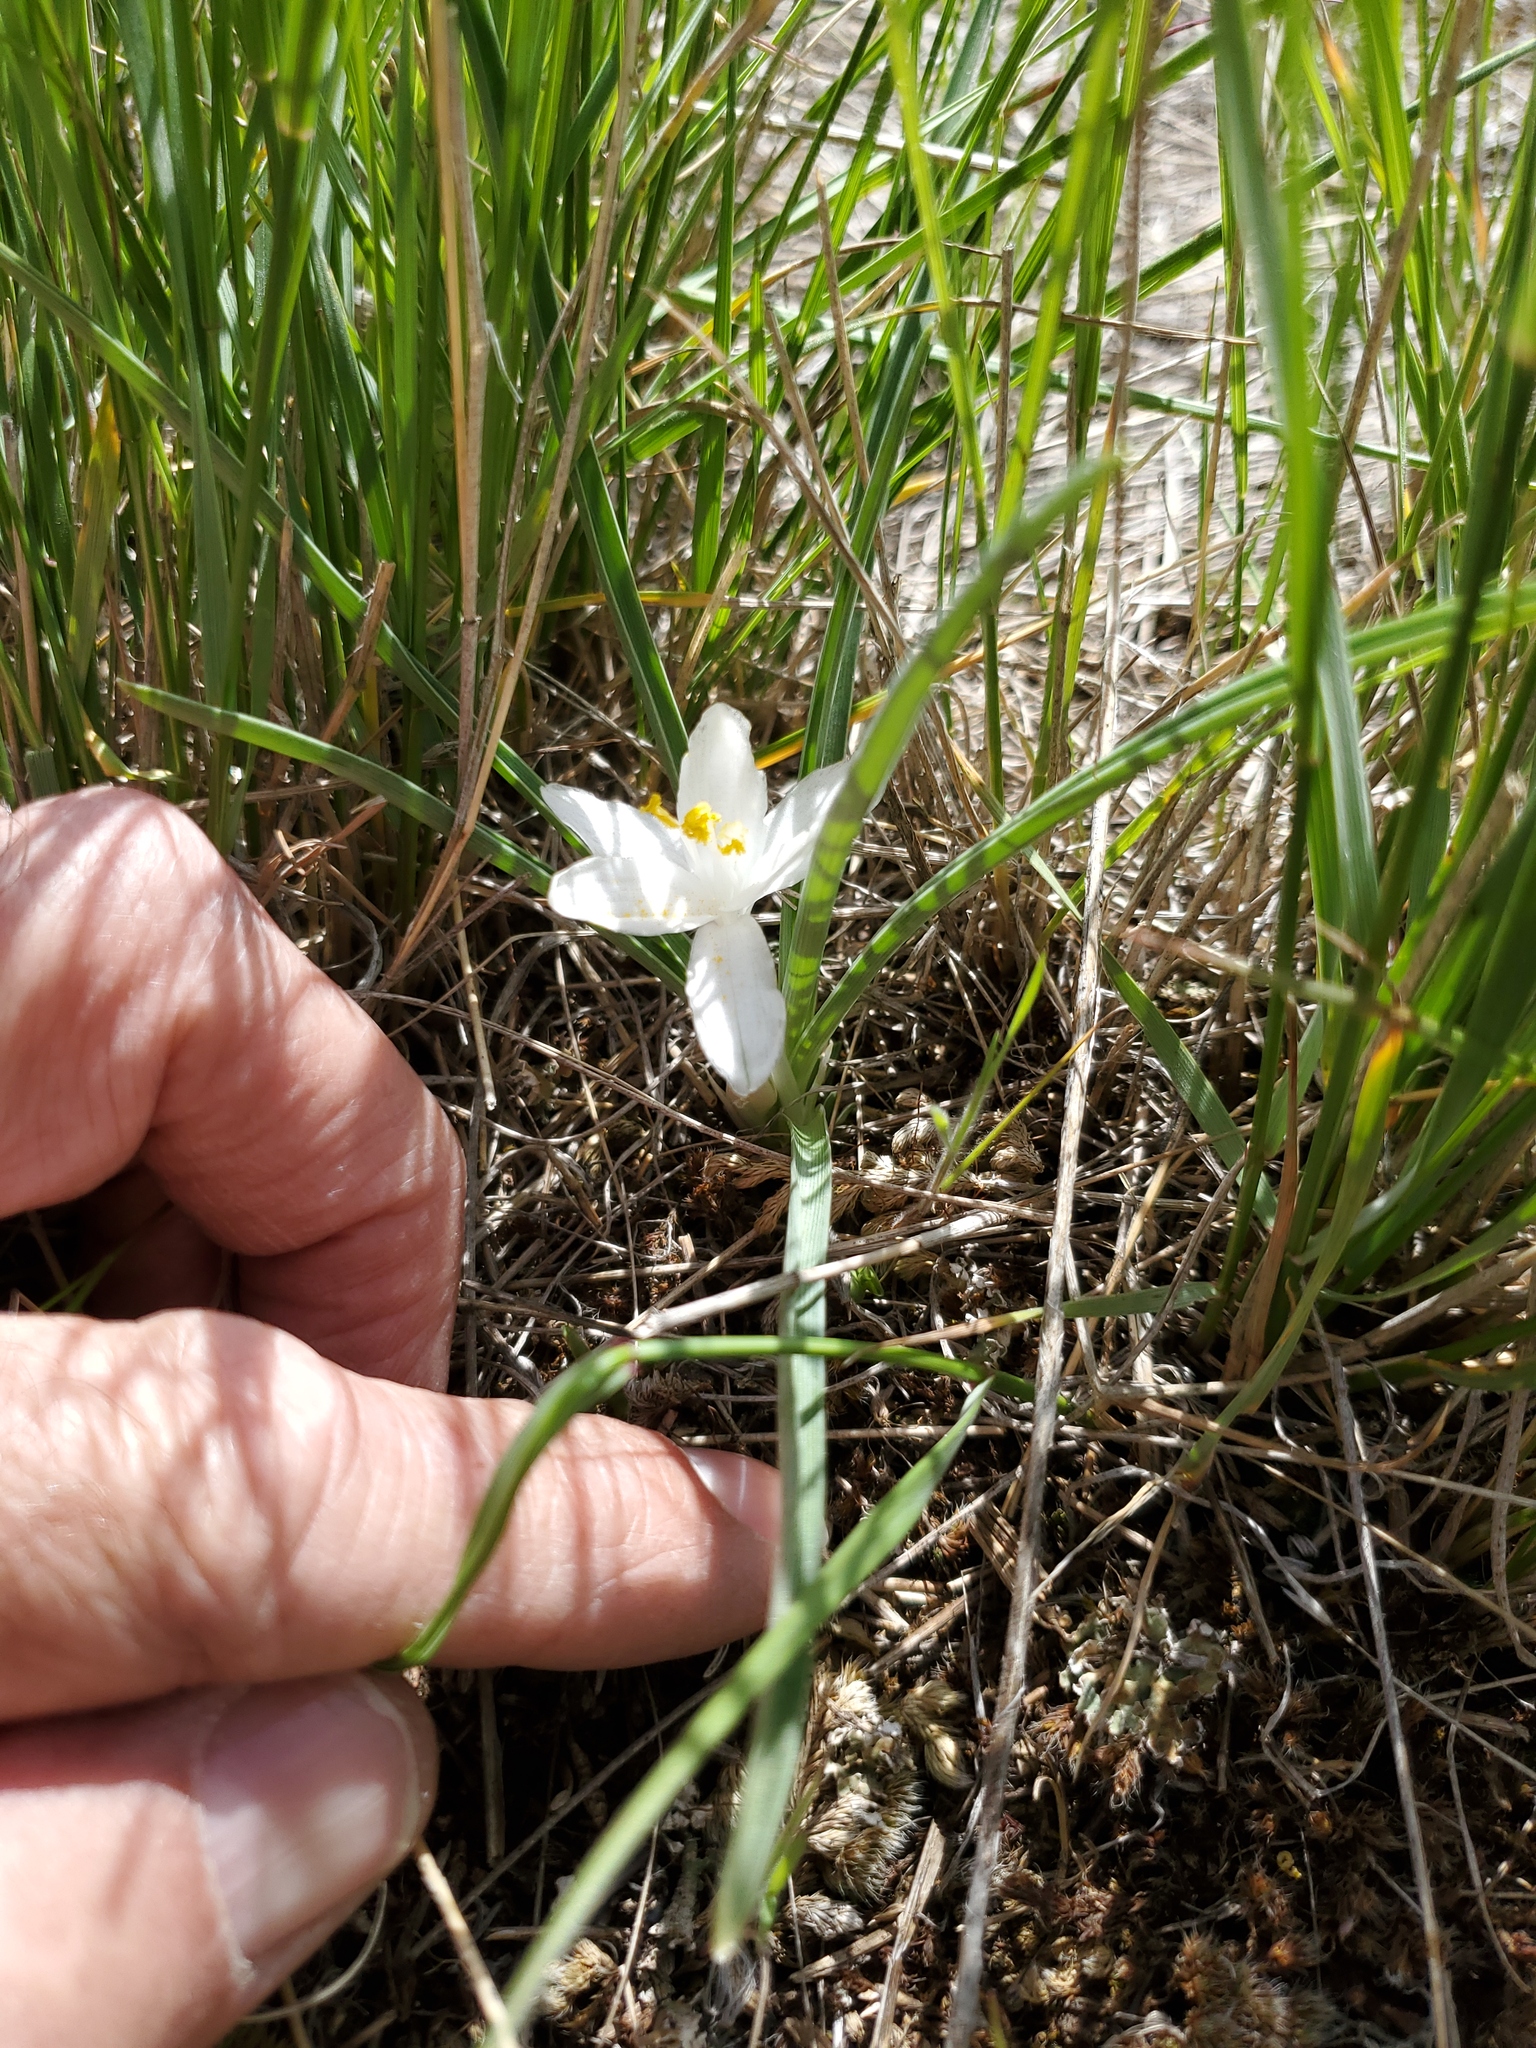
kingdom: Plantae
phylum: Tracheophyta
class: Liliopsida
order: Asparagales
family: Asparagaceae
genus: Leucocrinum
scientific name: Leucocrinum montanum
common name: Mountain-lily
